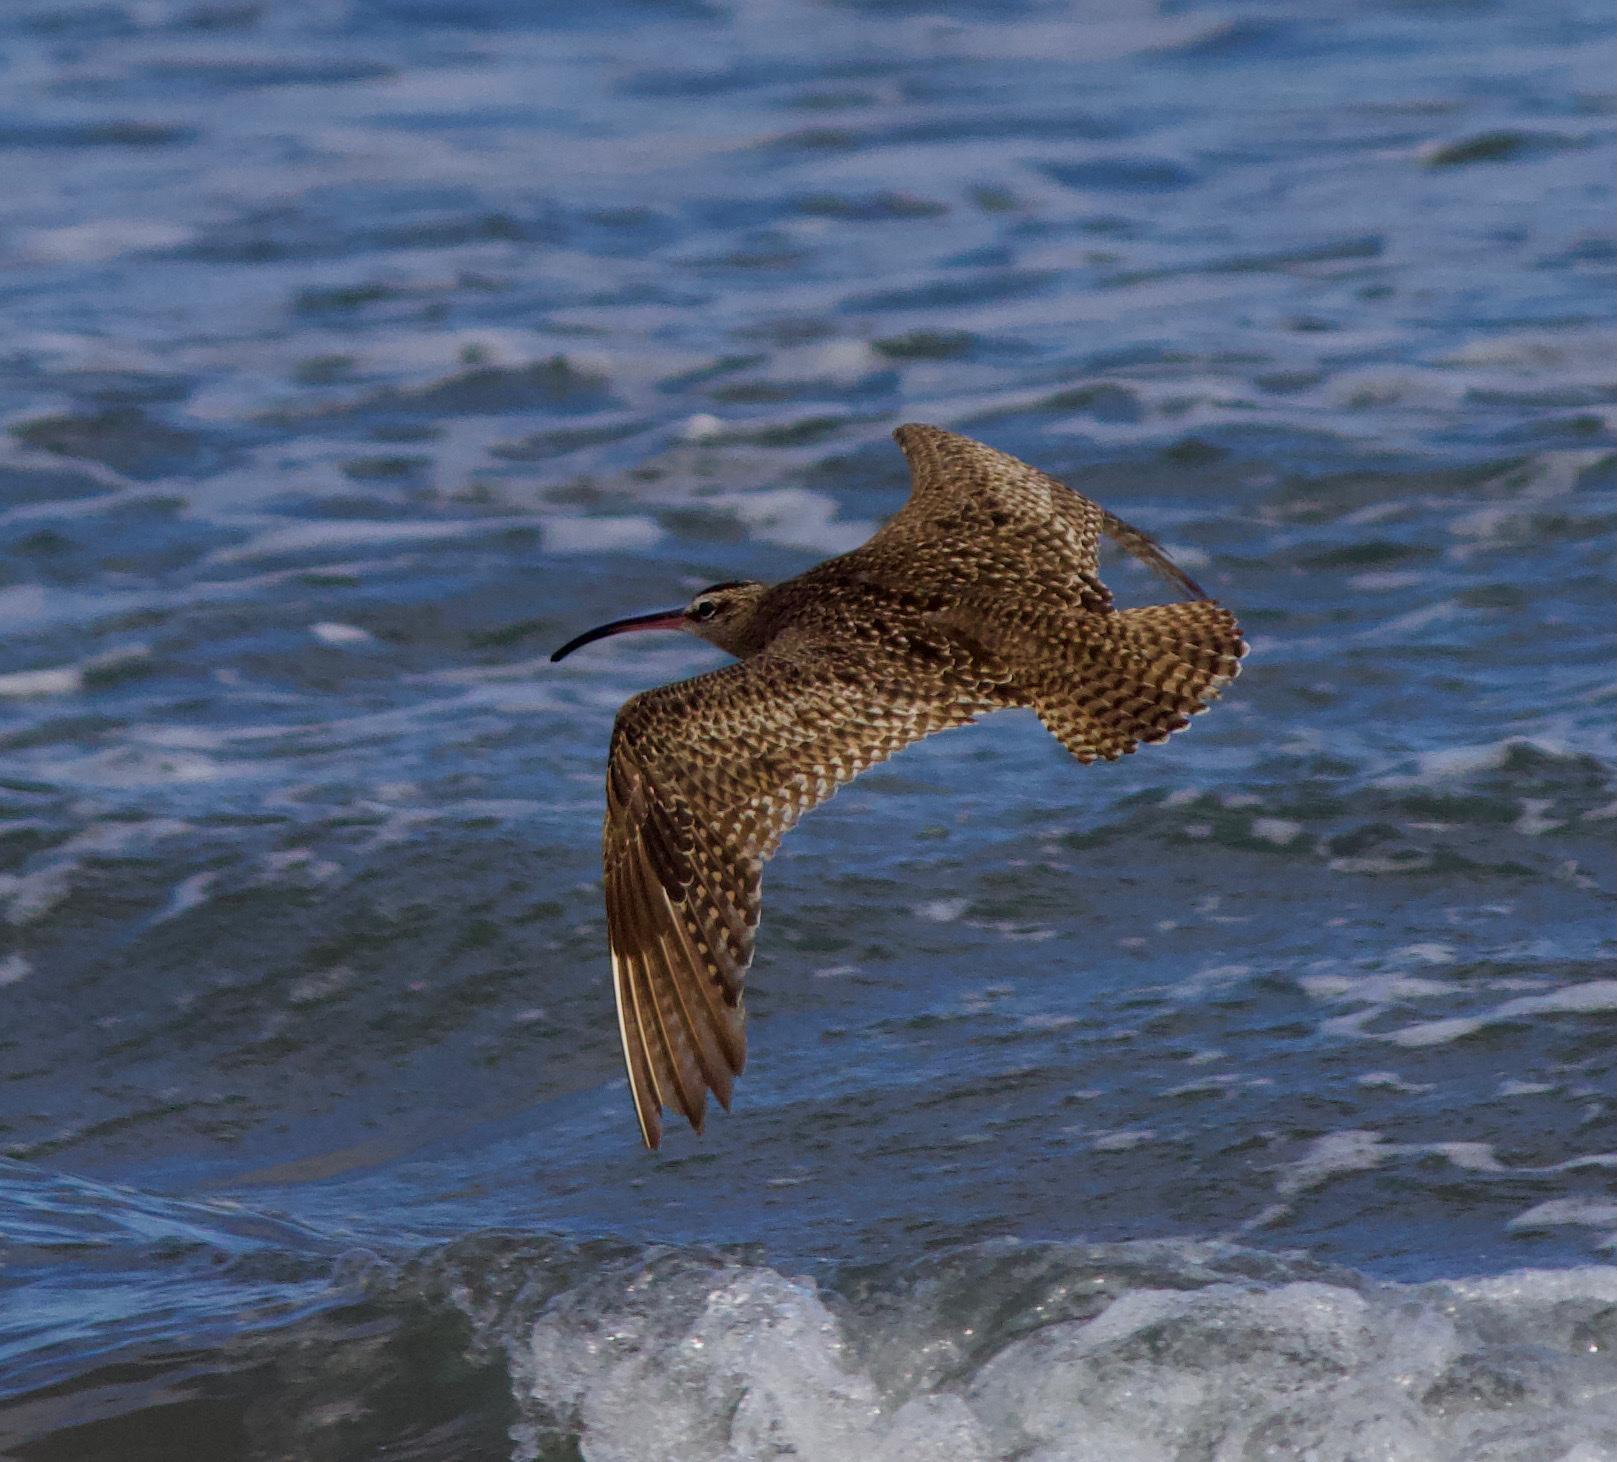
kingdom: Animalia
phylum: Chordata
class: Aves
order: Charadriiformes
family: Scolopacidae
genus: Numenius
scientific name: Numenius phaeopus
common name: Whimbrel
